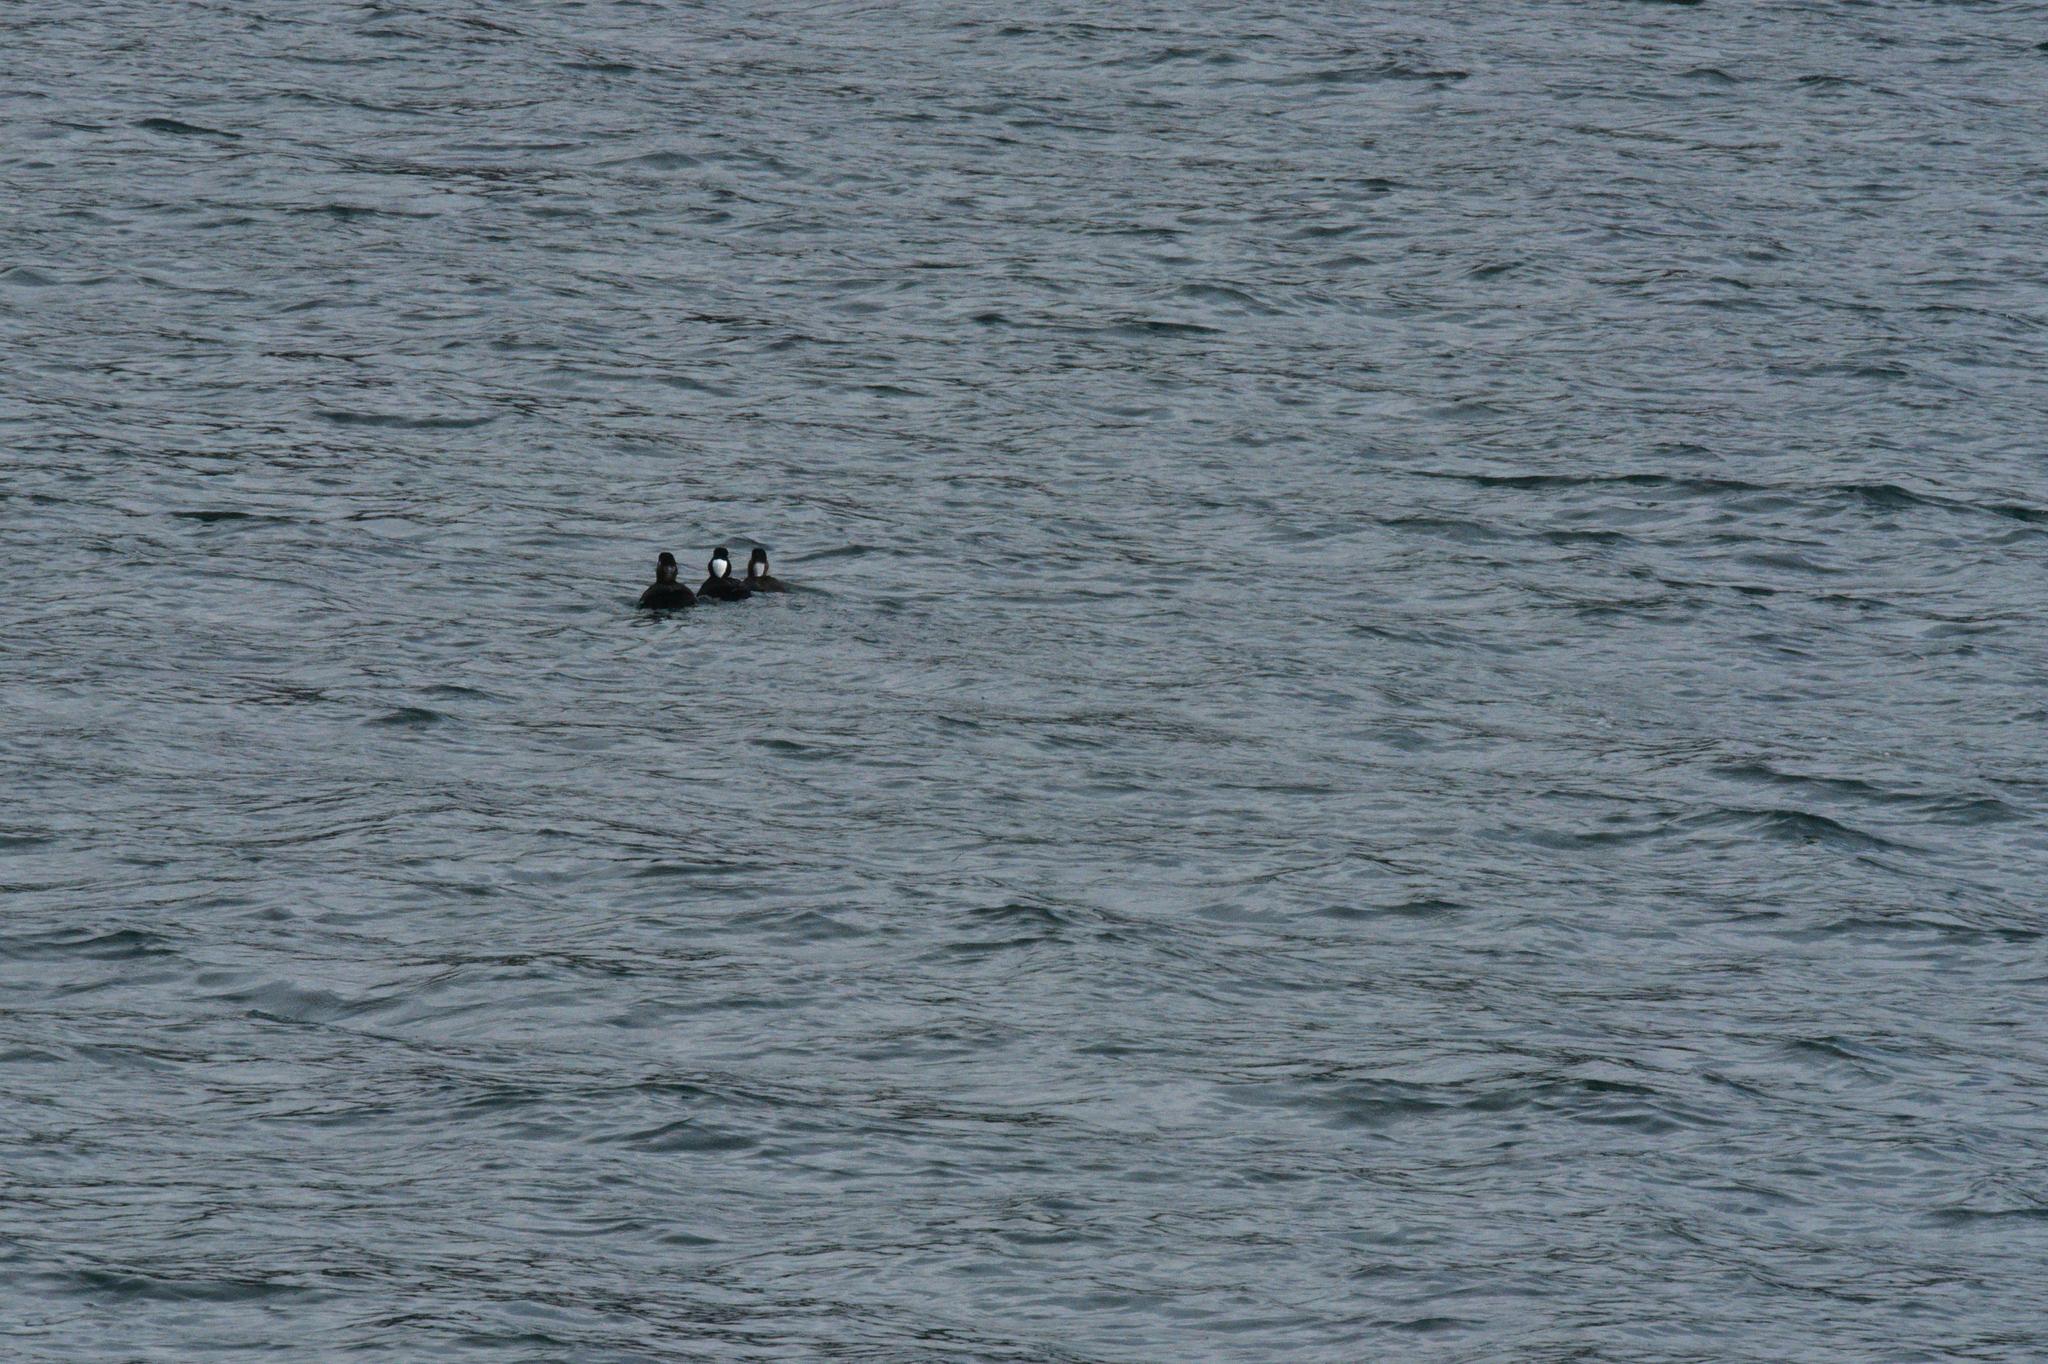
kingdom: Animalia
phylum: Chordata
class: Aves
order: Anseriformes
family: Anatidae
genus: Melanitta
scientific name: Melanitta perspicillata
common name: Surf scoter
